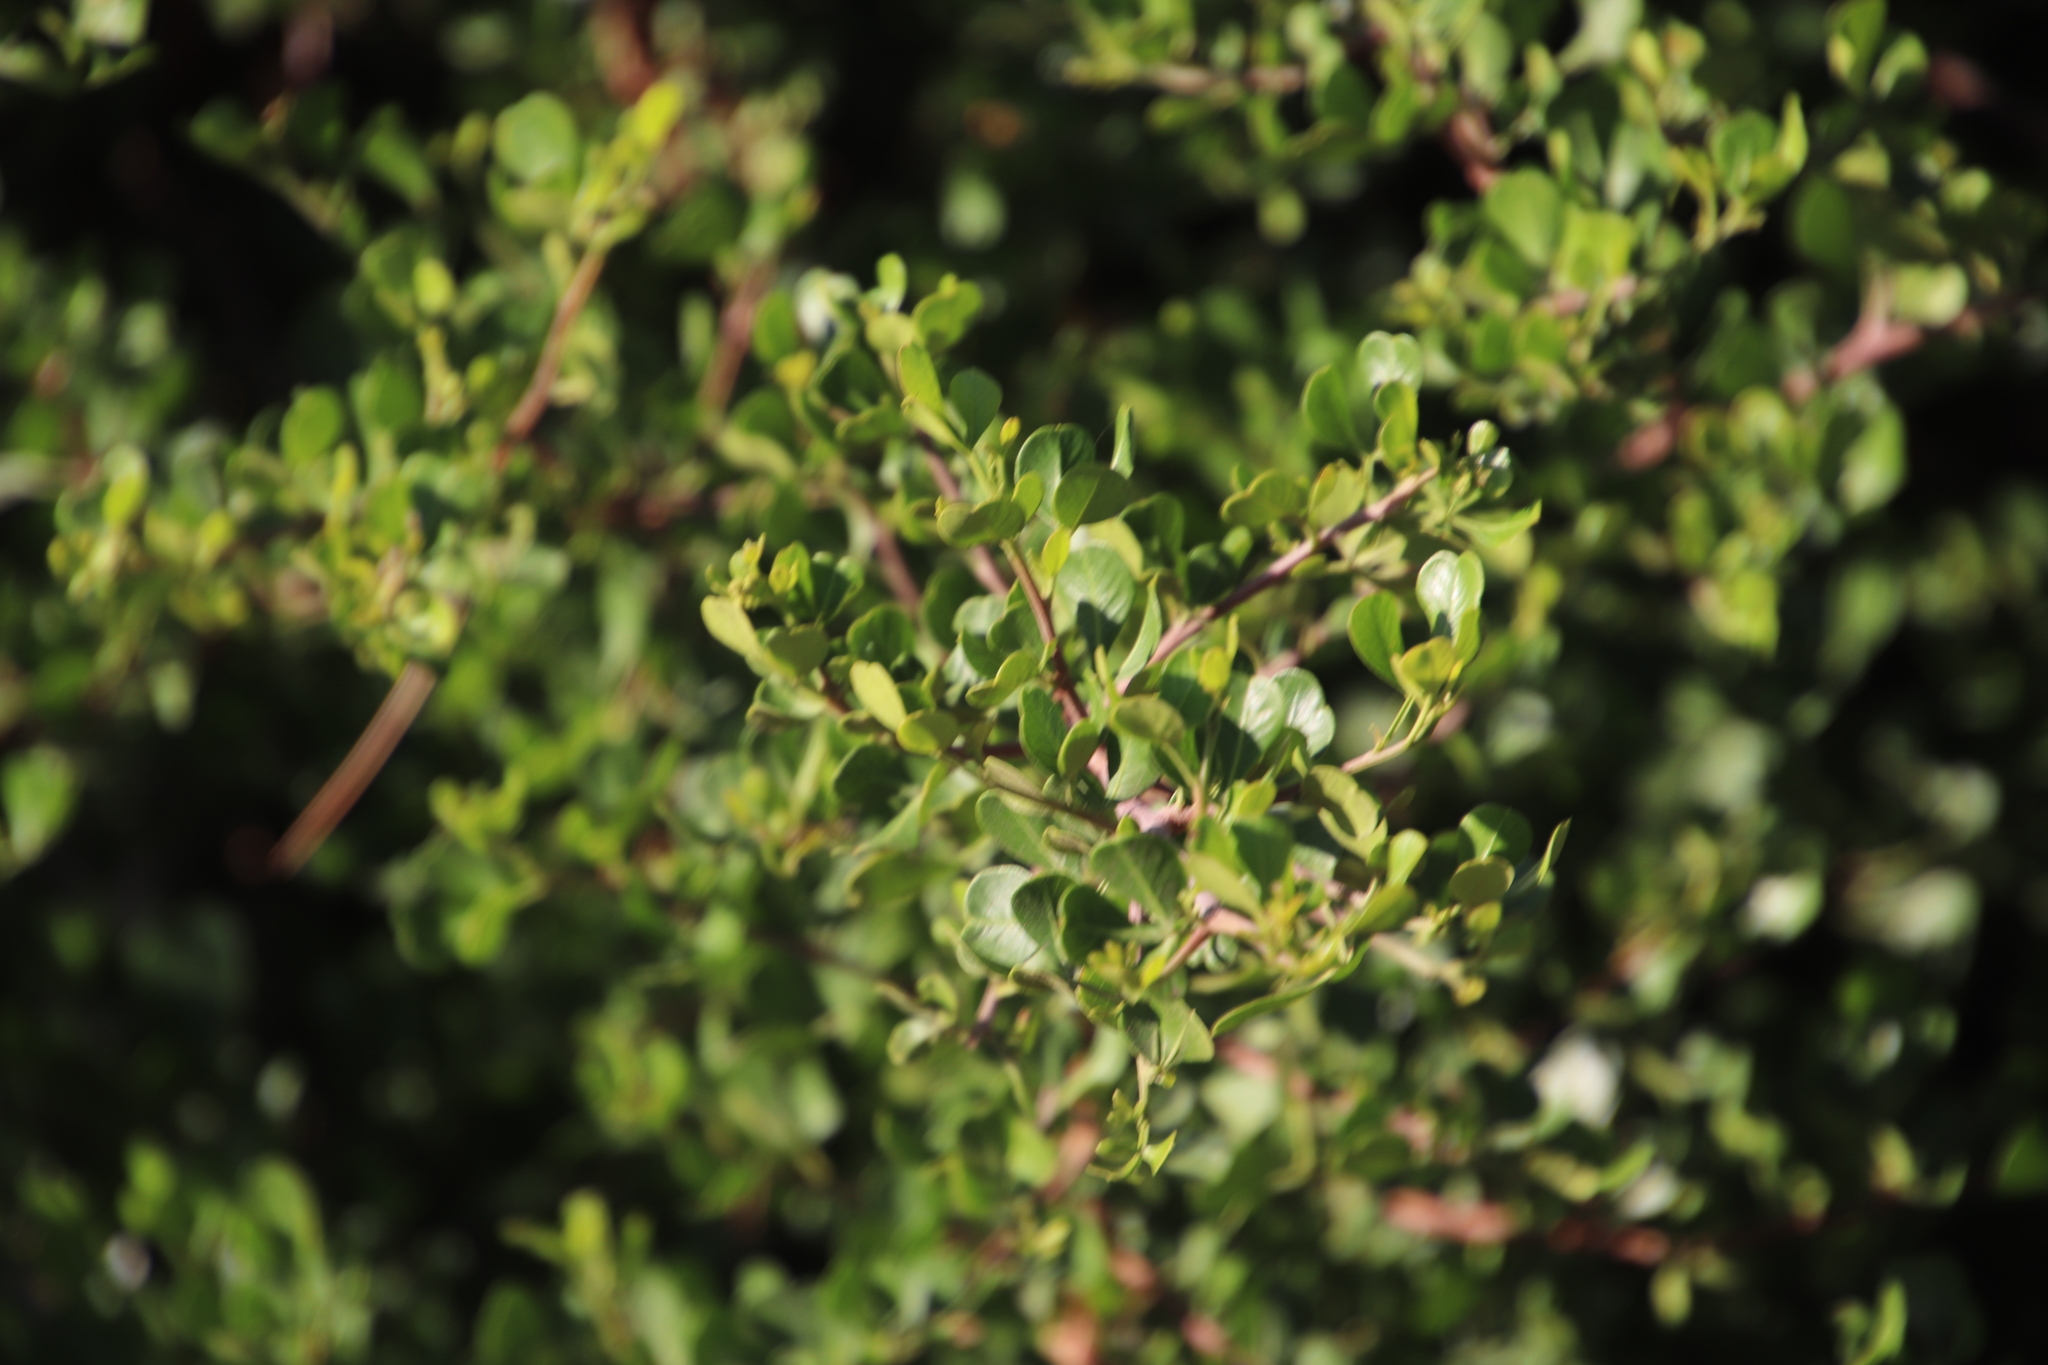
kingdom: Plantae
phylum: Tracheophyta
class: Magnoliopsida
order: Sapindales
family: Anacardiaceae
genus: Searsia
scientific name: Searsia glauca
